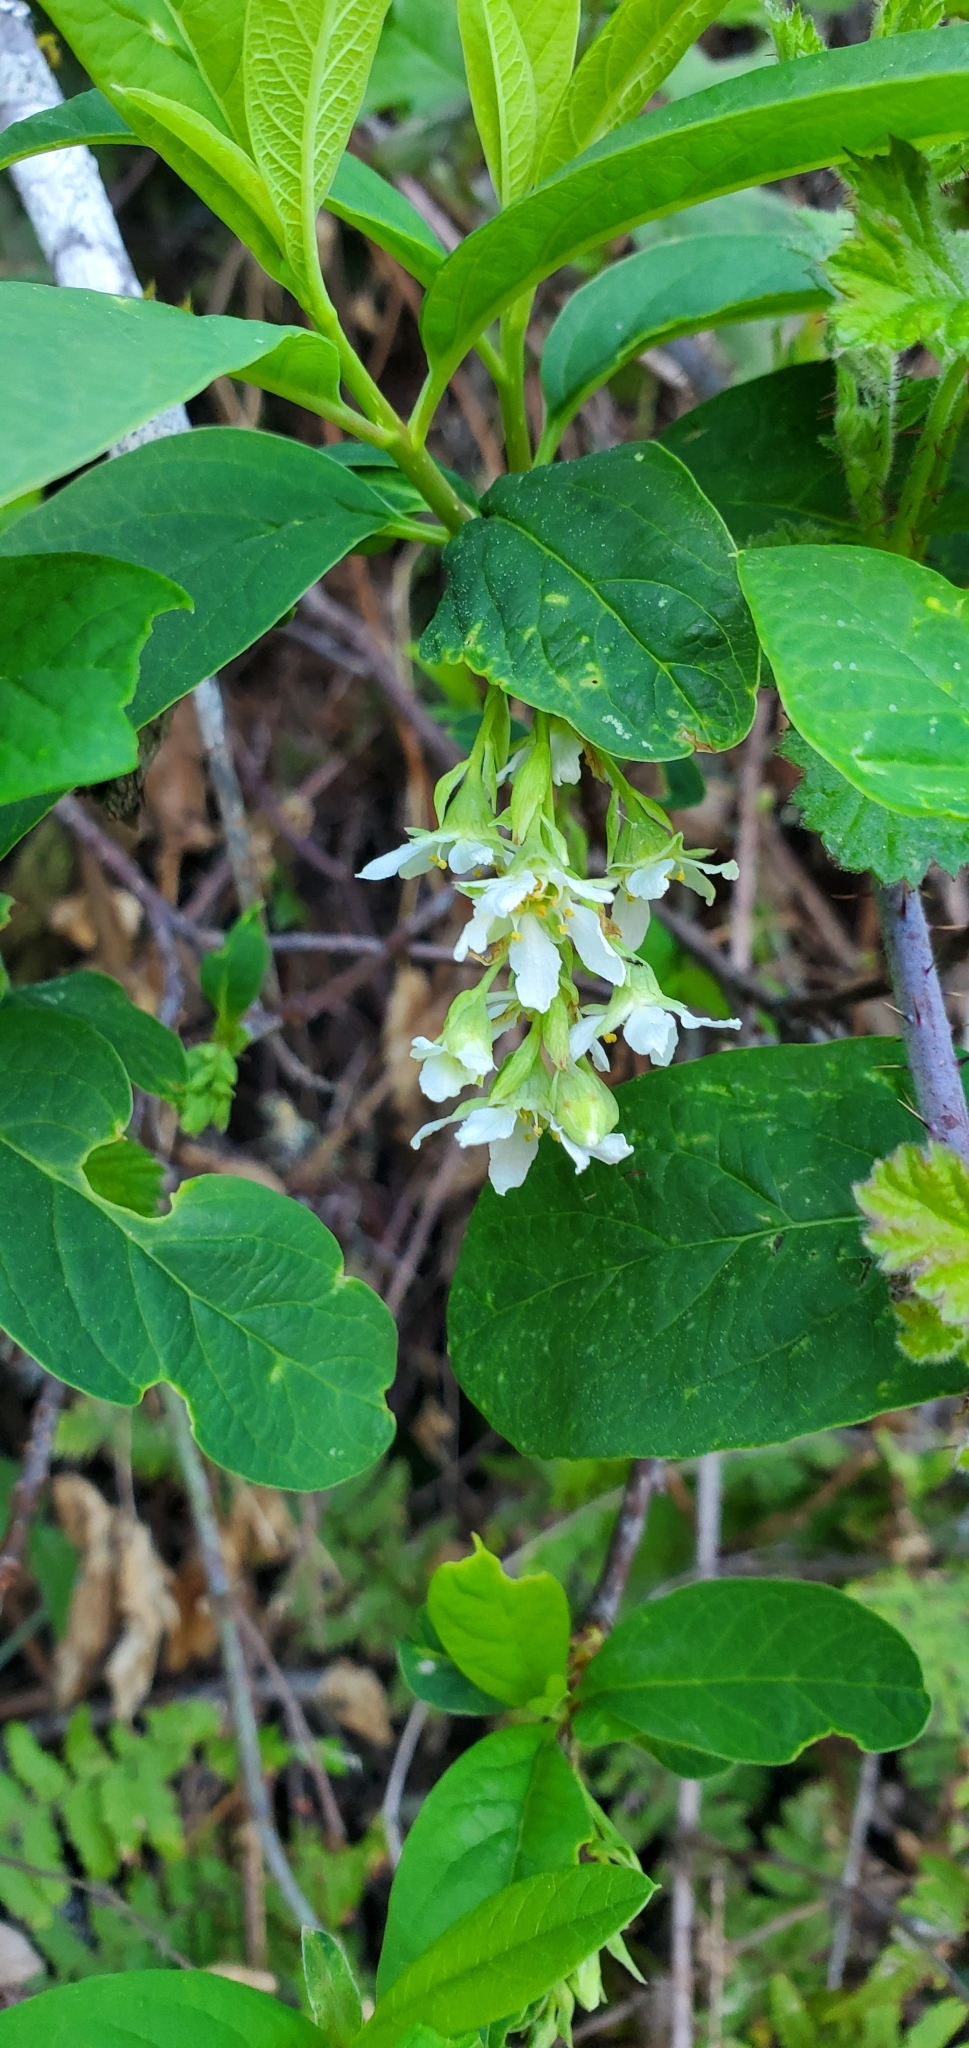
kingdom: Plantae
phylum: Tracheophyta
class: Magnoliopsida
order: Rosales
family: Rosaceae
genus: Oemleria
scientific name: Oemleria cerasiformis
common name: Osoberry
